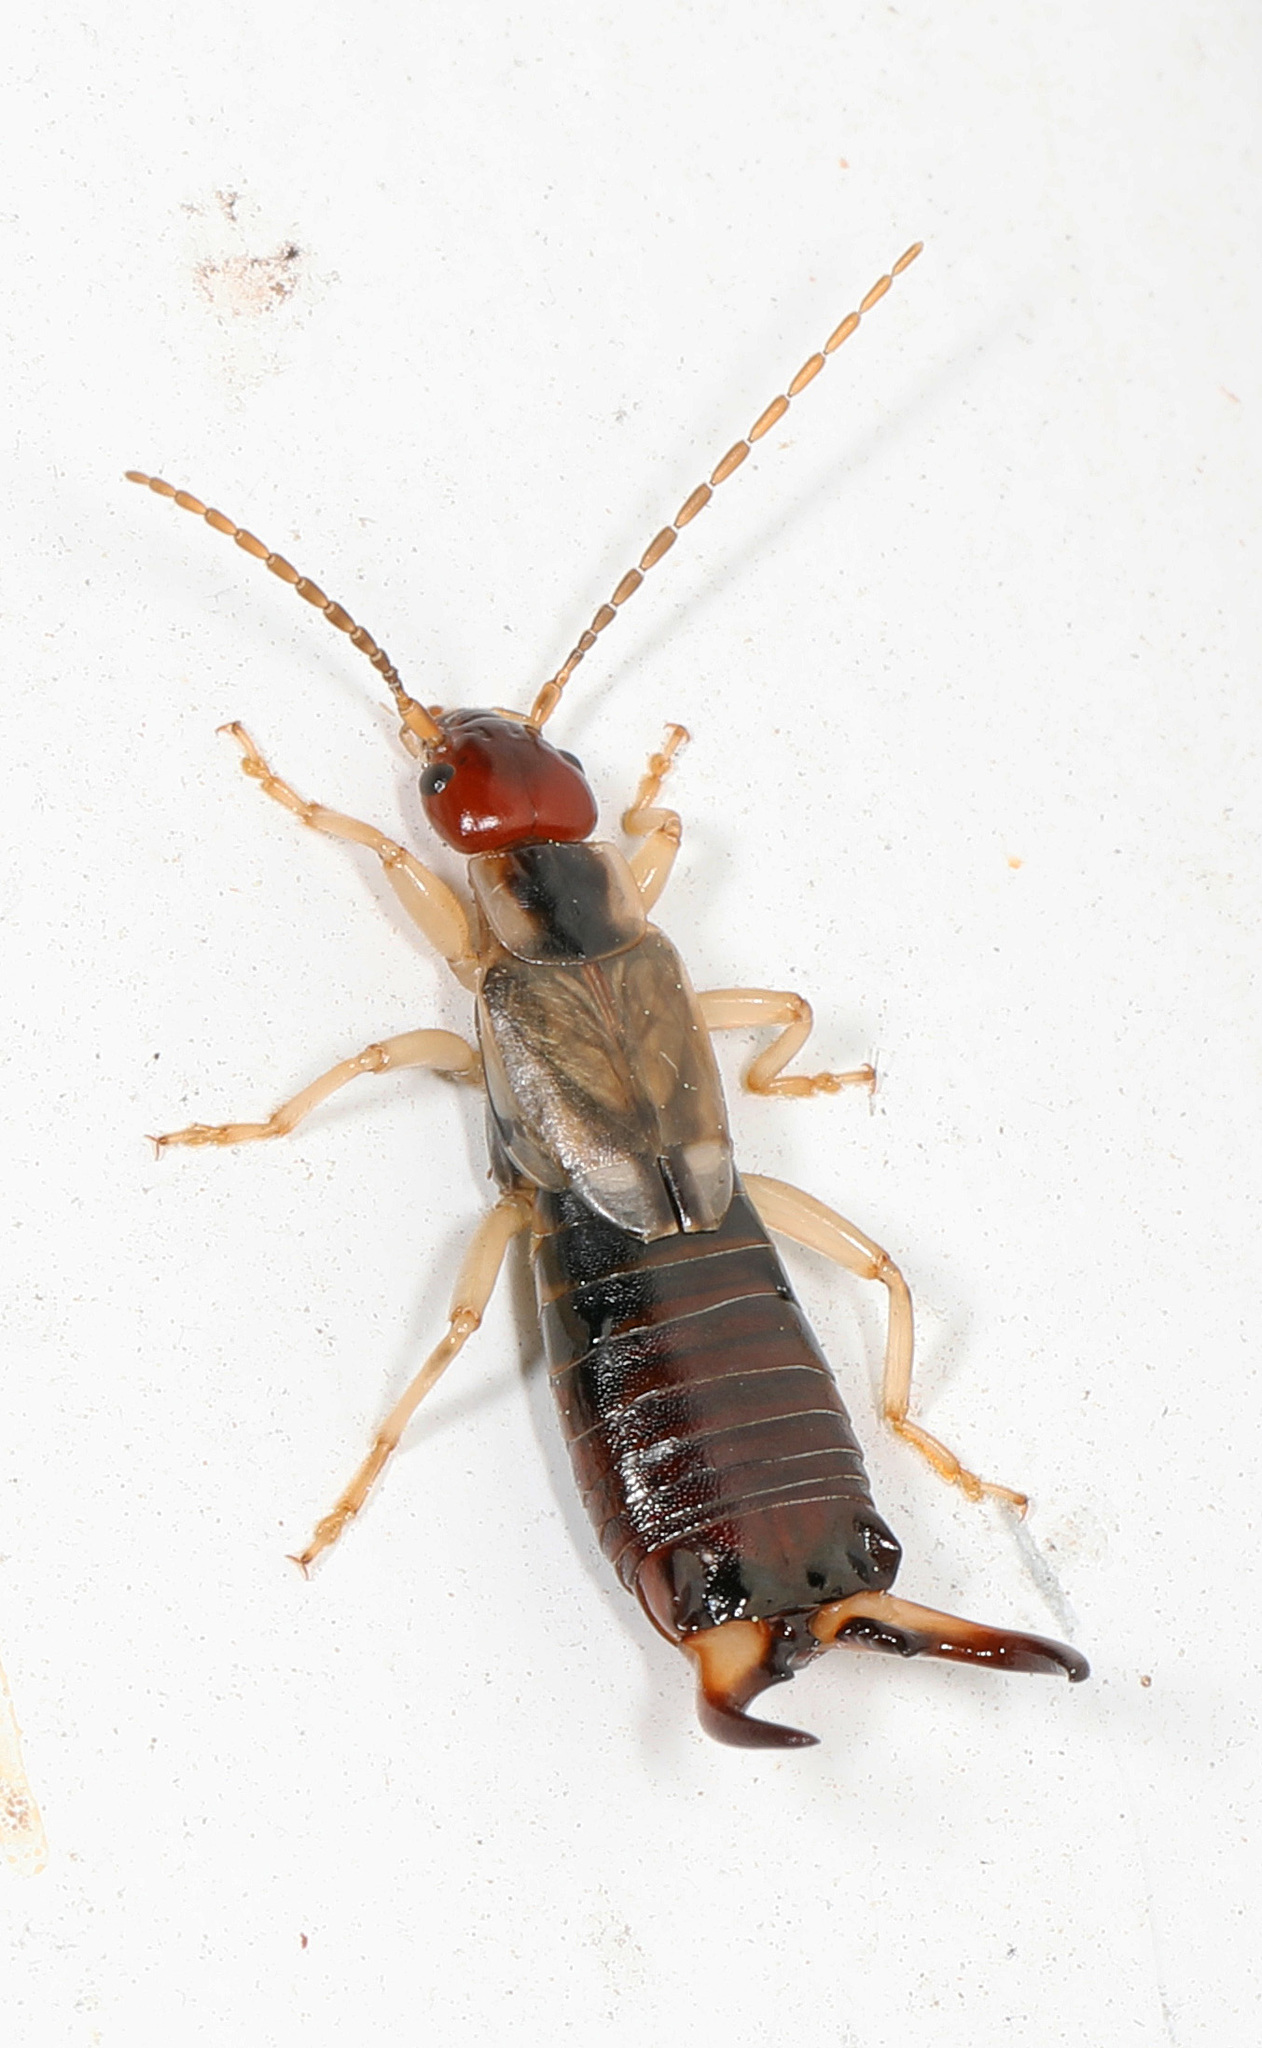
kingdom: Animalia
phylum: Arthropoda
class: Insecta
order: Dermaptera
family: Forficulidae
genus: Forficula
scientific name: Forficula
